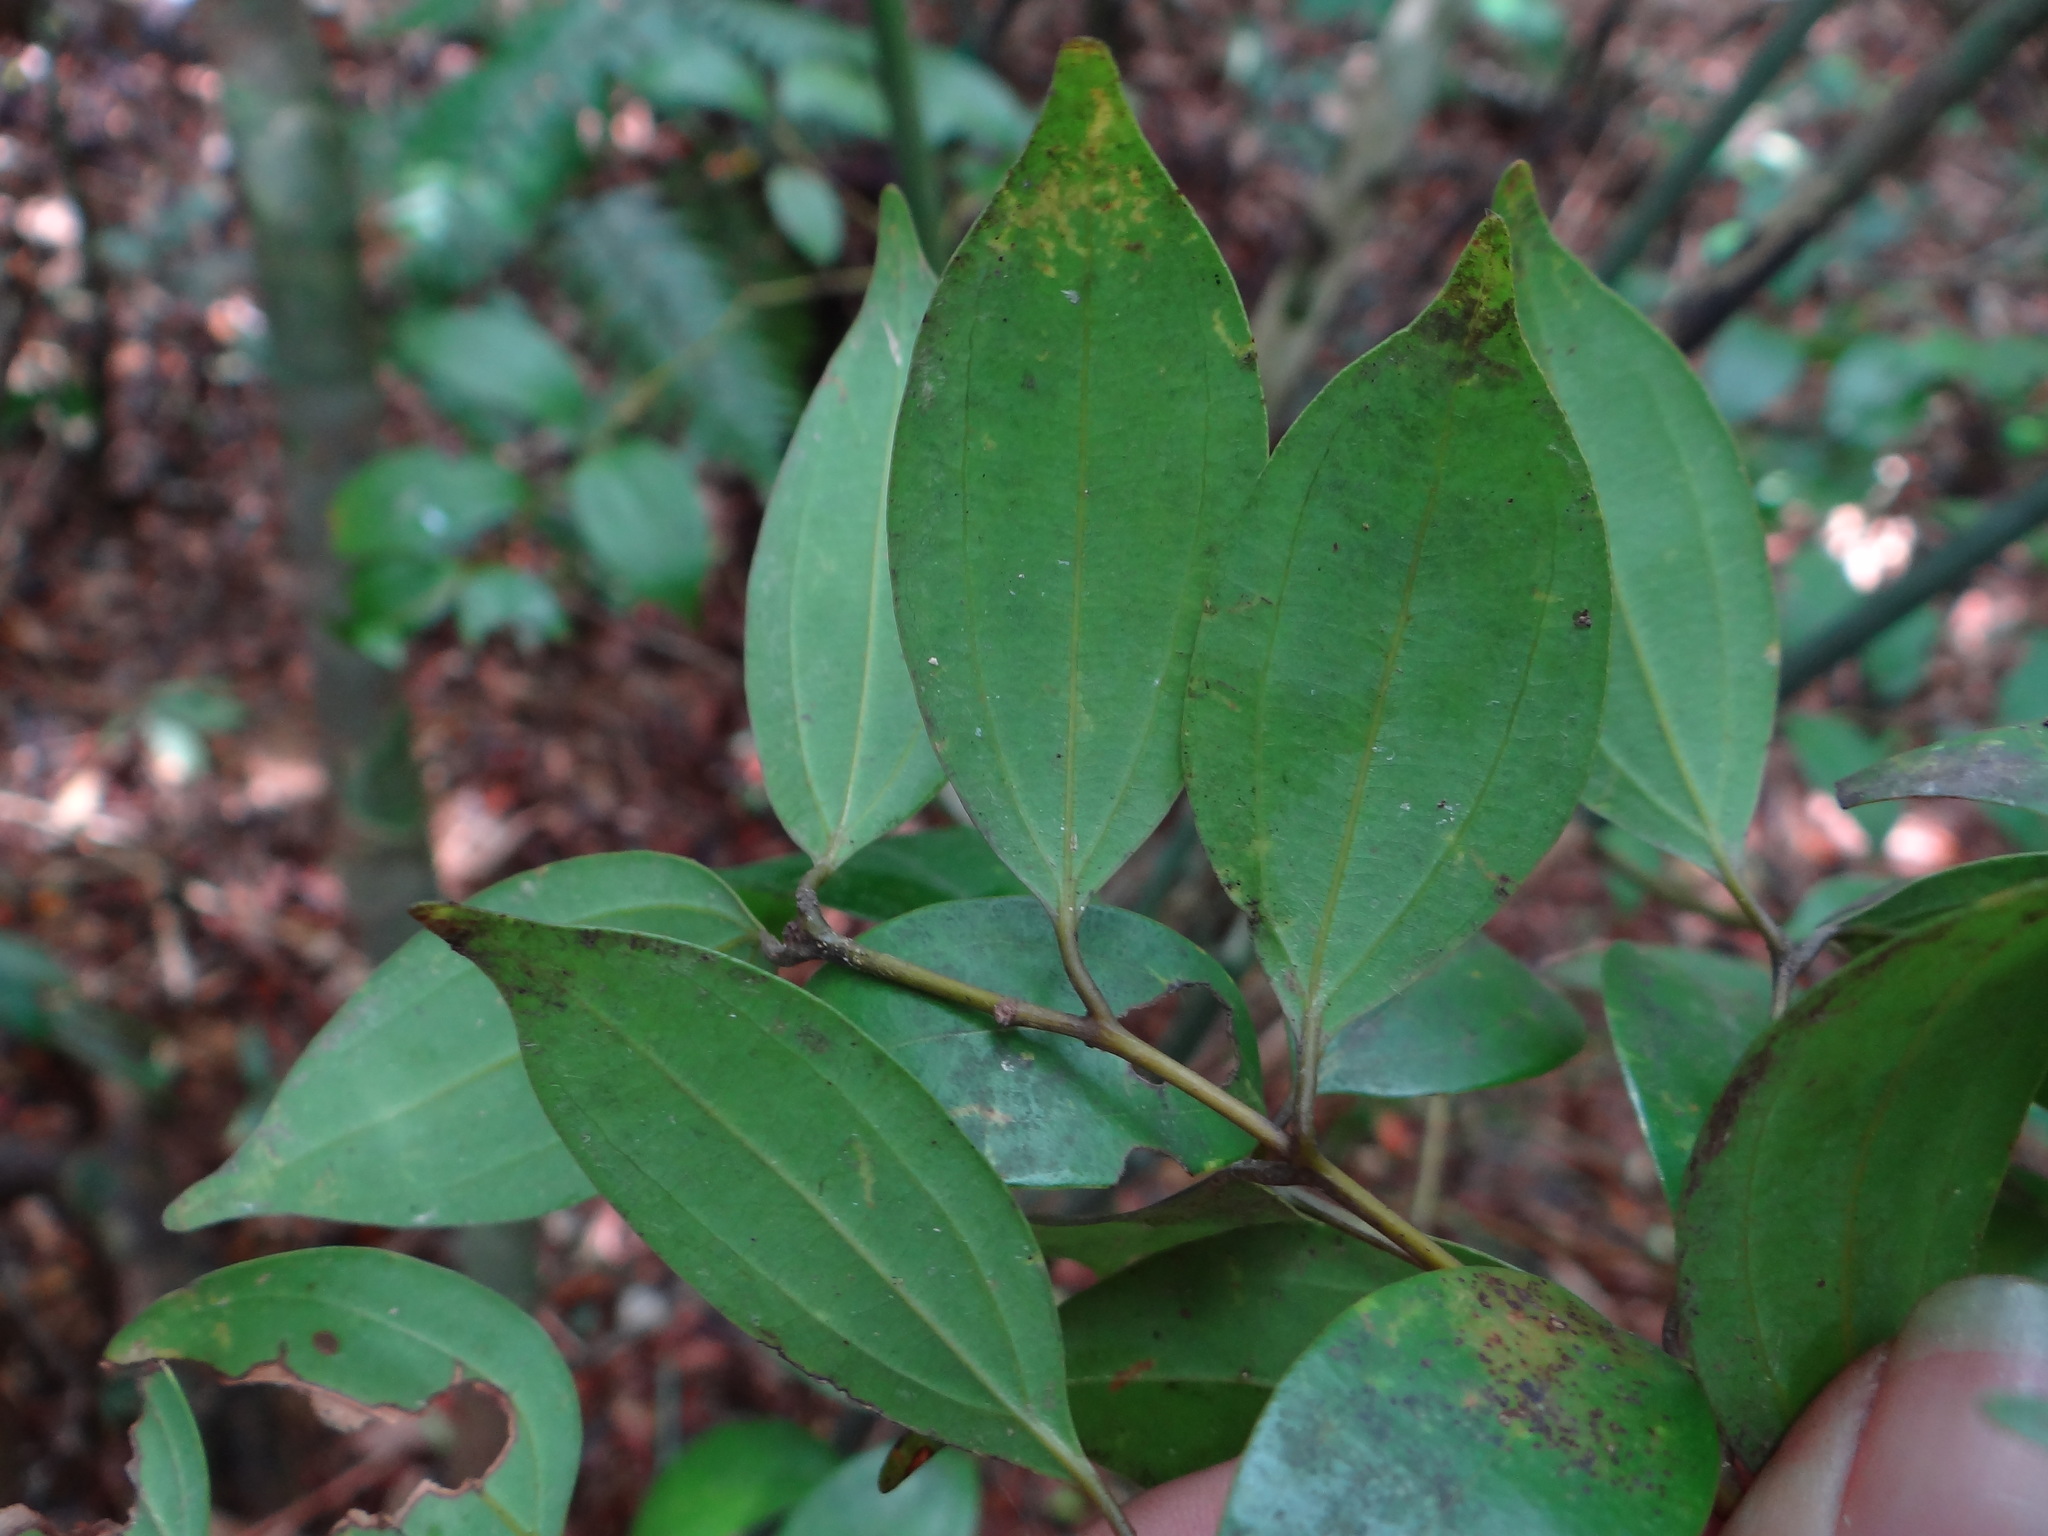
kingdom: Plantae
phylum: Tracheophyta
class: Magnoliopsida
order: Laurales
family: Lauraceae
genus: Cinnamomum
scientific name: Cinnamomum rigidissimum
